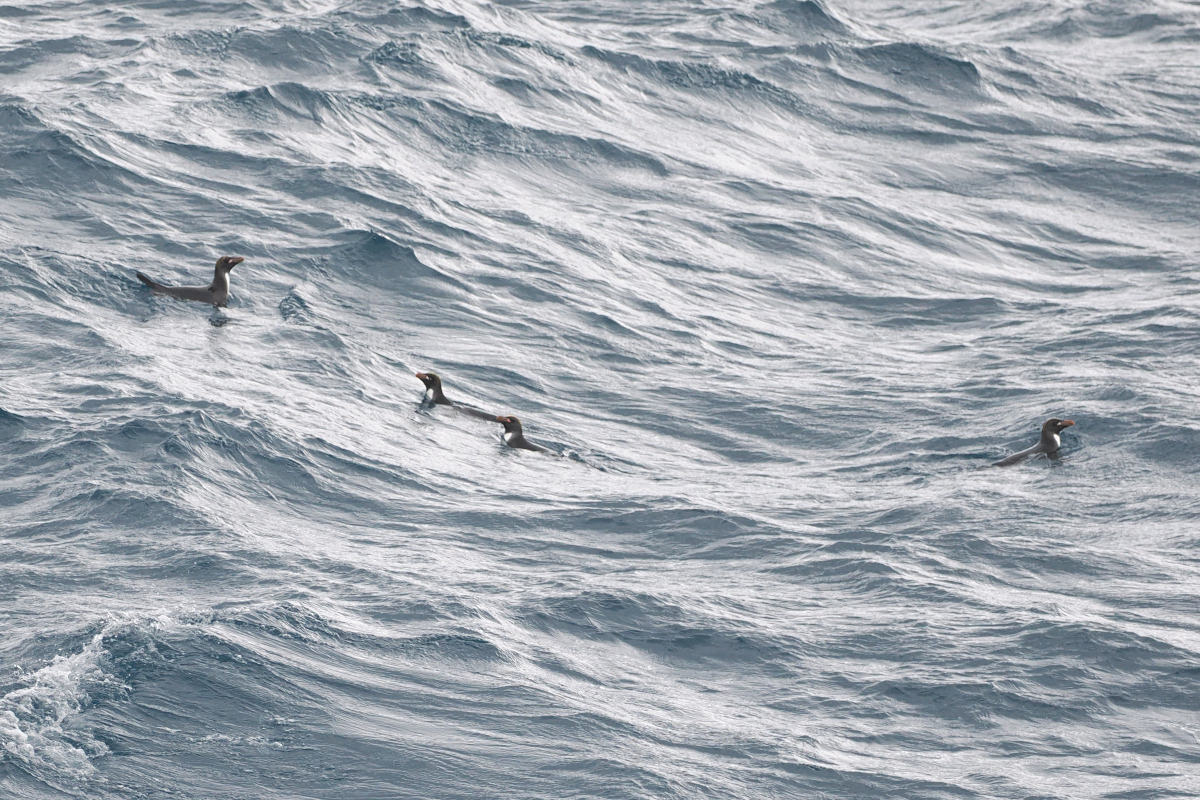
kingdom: Animalia
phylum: Chordata
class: Aves
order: Sphenisciformes
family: Spheniscidae
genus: Eudyptes
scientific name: Eudyptes chrysolophus
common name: Macaroni penguin
